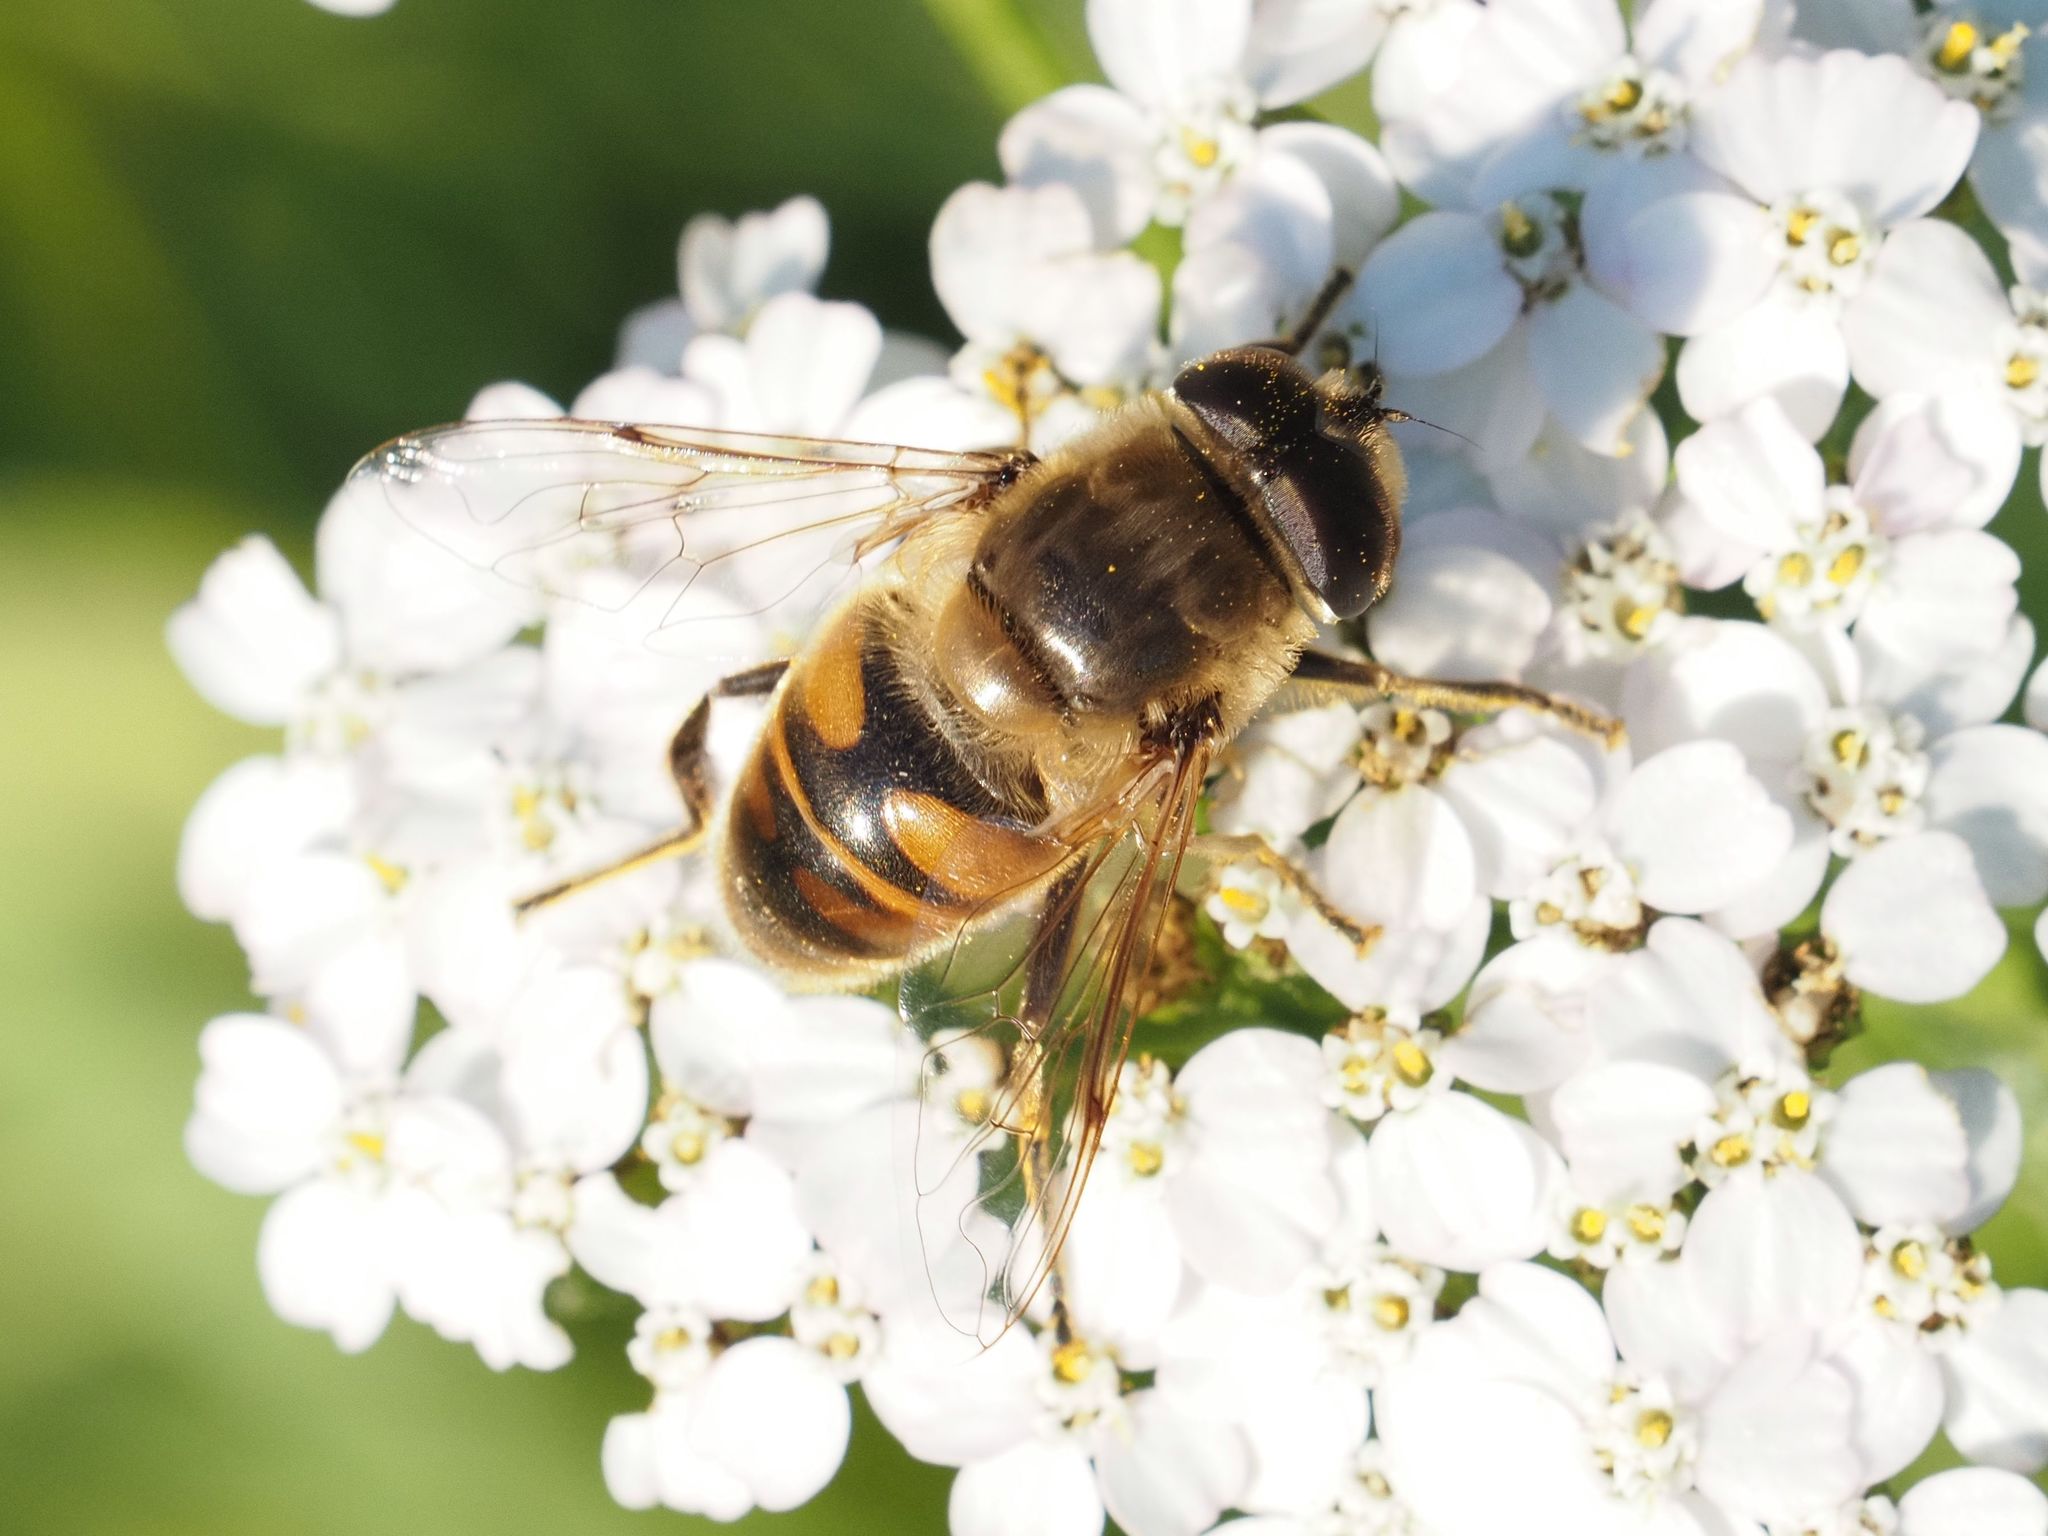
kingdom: Animalia
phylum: Arthropoda
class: Insecta
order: Diptera
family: Syrphidae
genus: Eristalis
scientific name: Eristalis tenax
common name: Drone fly
